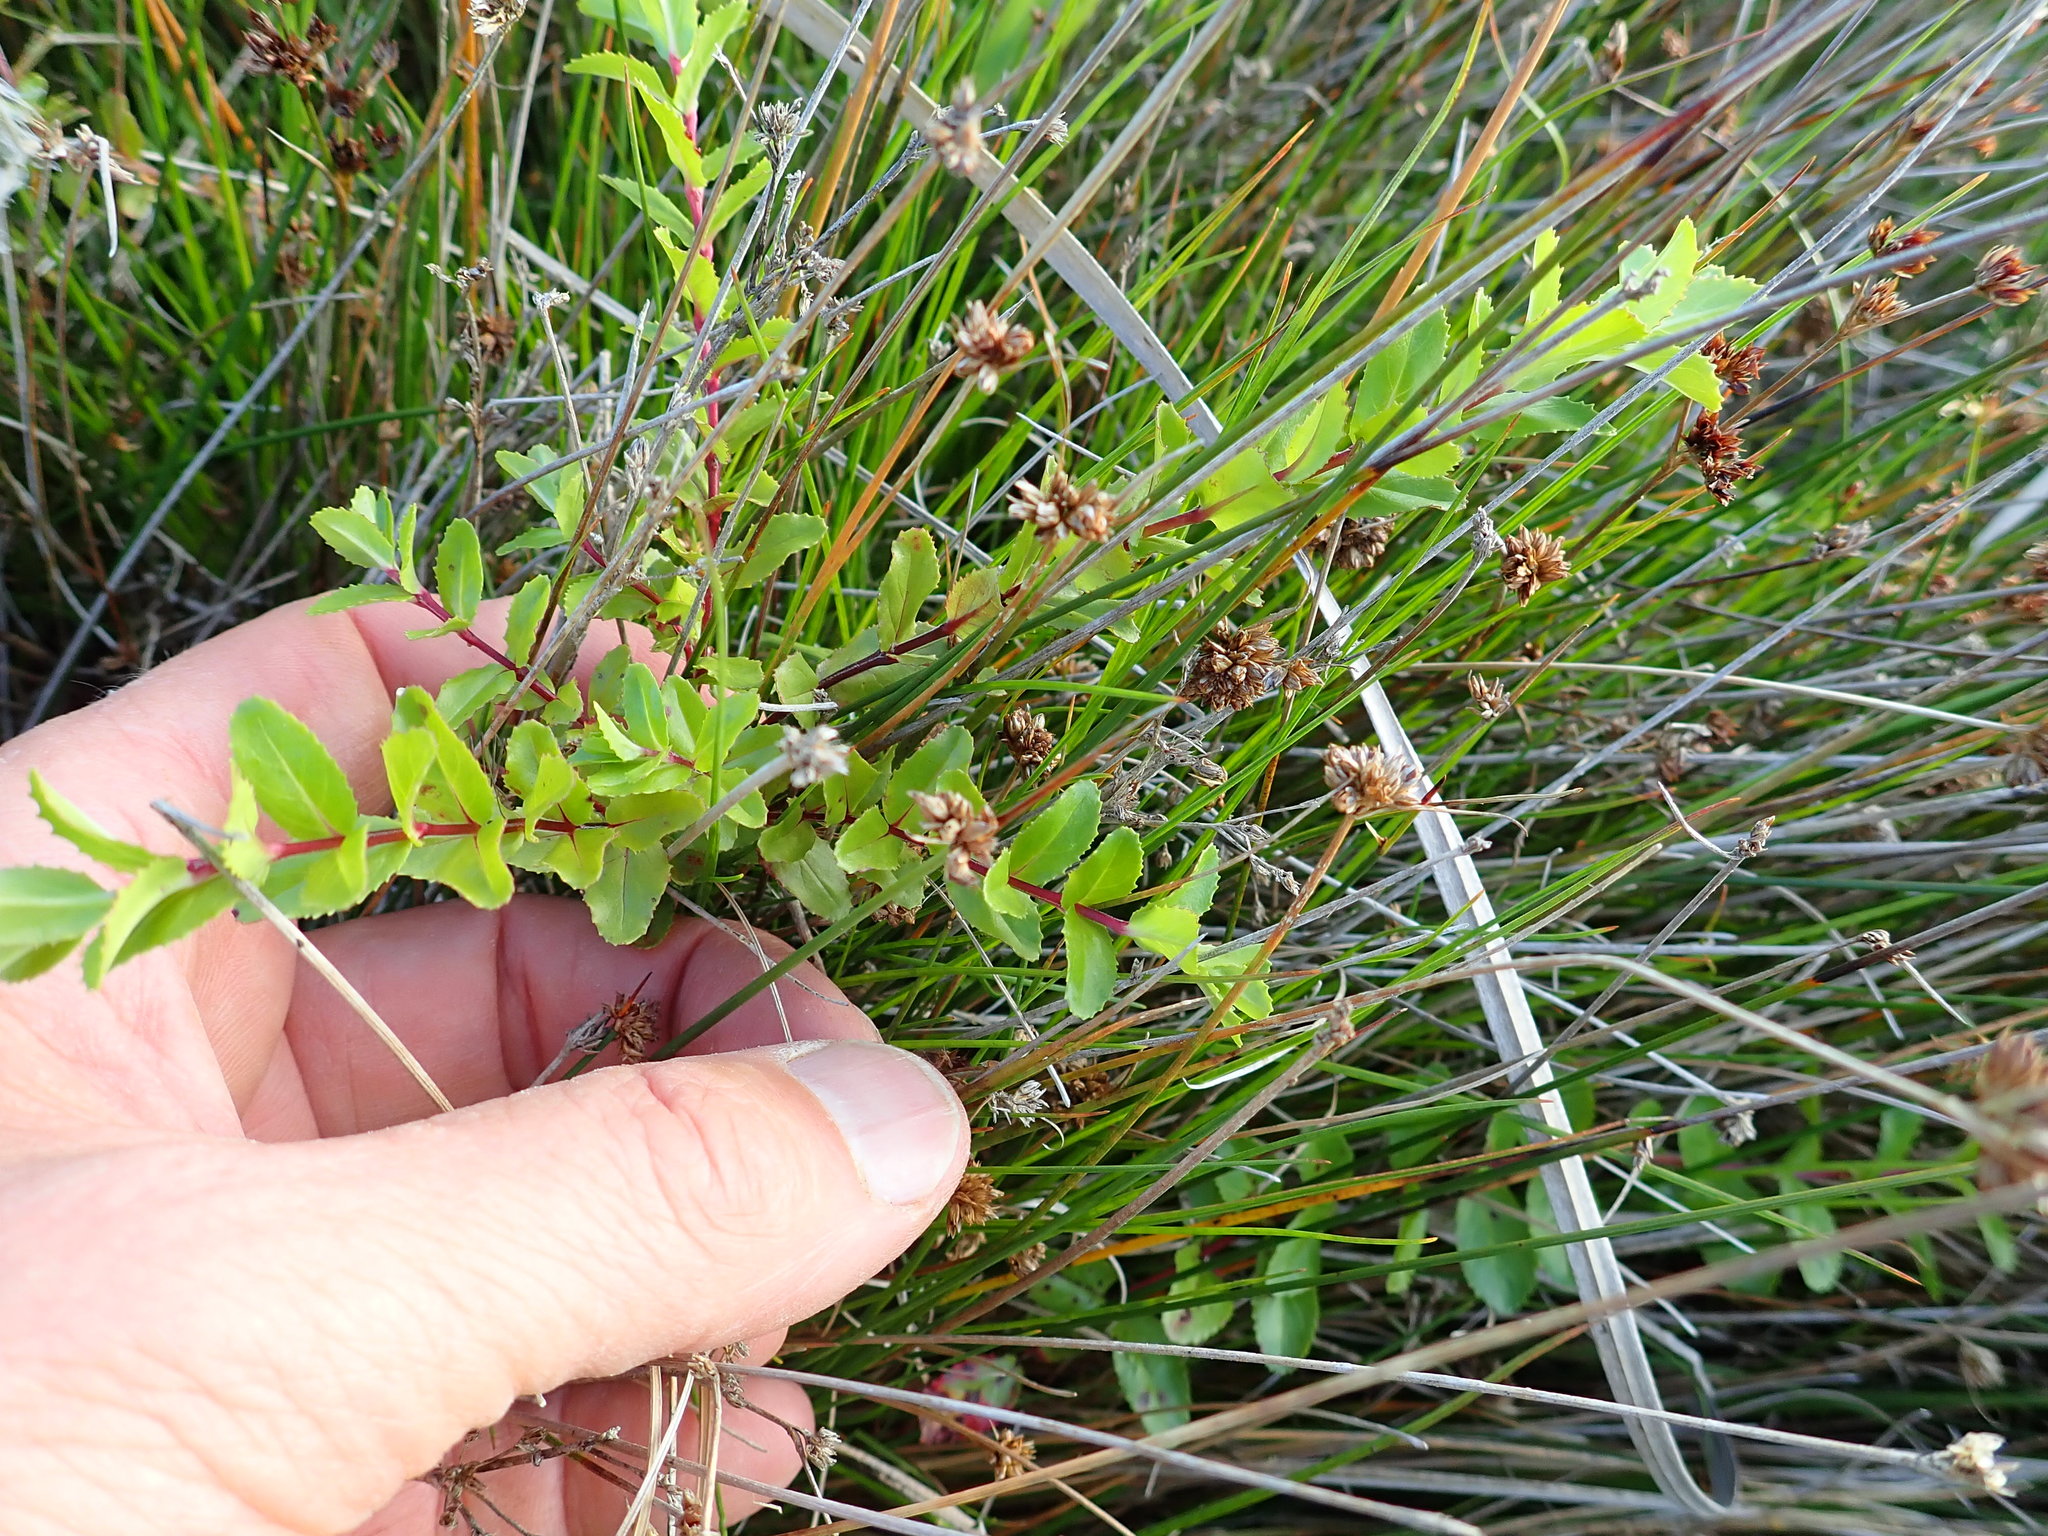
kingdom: Plantae
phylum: Tracheophyta
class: Magnoliopsida
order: Myrtales
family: Onagraceae
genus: Epilobium
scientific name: Epilobium billardiereanum
